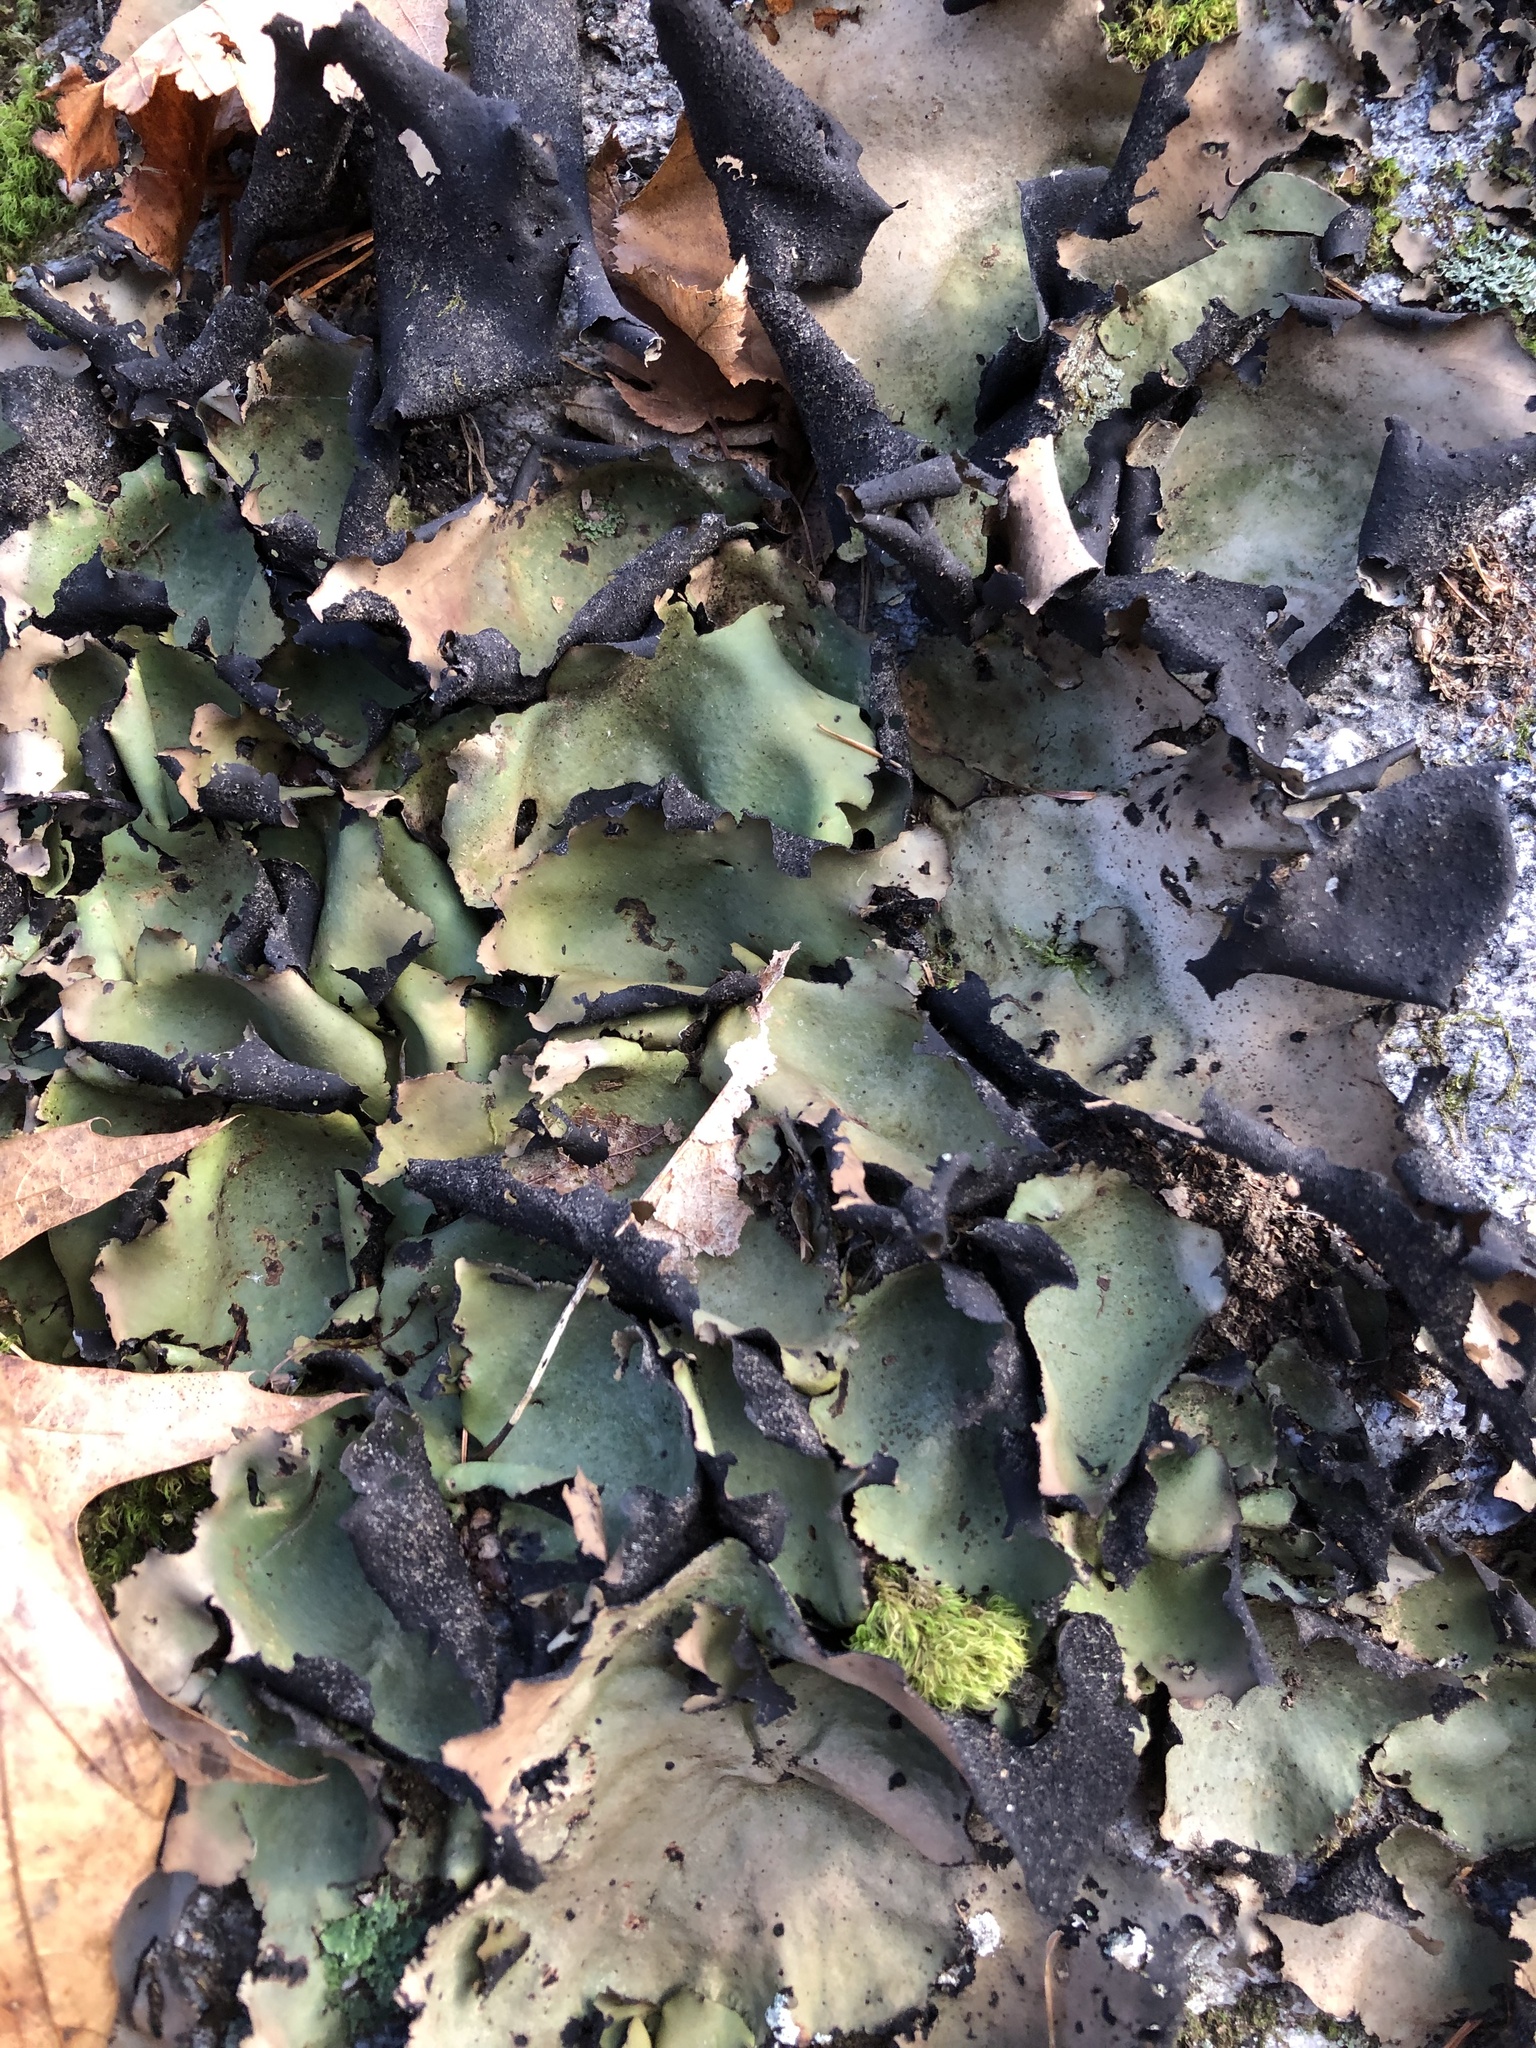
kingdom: Fungi
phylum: Ascomycota
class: Lecanoromycetes
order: Umbilicariales
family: Umbilicariaceae
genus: Umbilicaria
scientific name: Umbilicaria mammulata
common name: Smooth rock tripe
